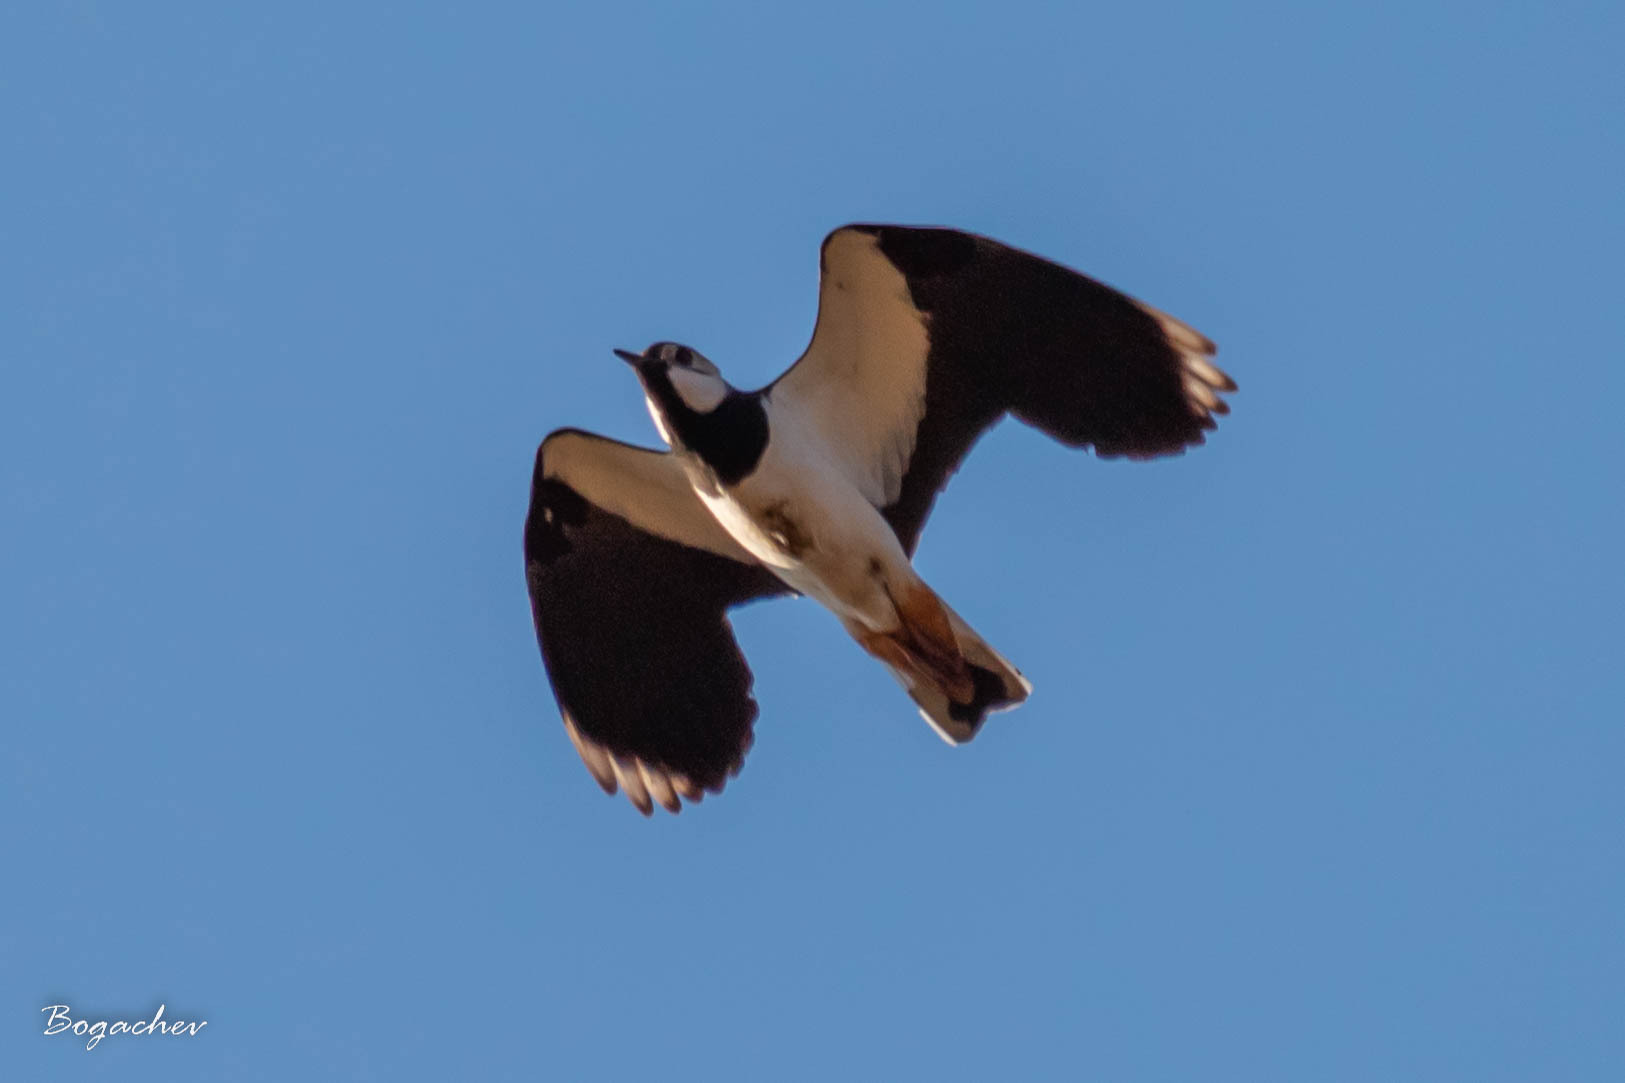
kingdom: Animalia
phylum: Chordata
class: Aves
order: Charadriiformes
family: Charadriidae
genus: Vanellus
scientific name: Vanellus vanellus
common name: Northern lapwing
